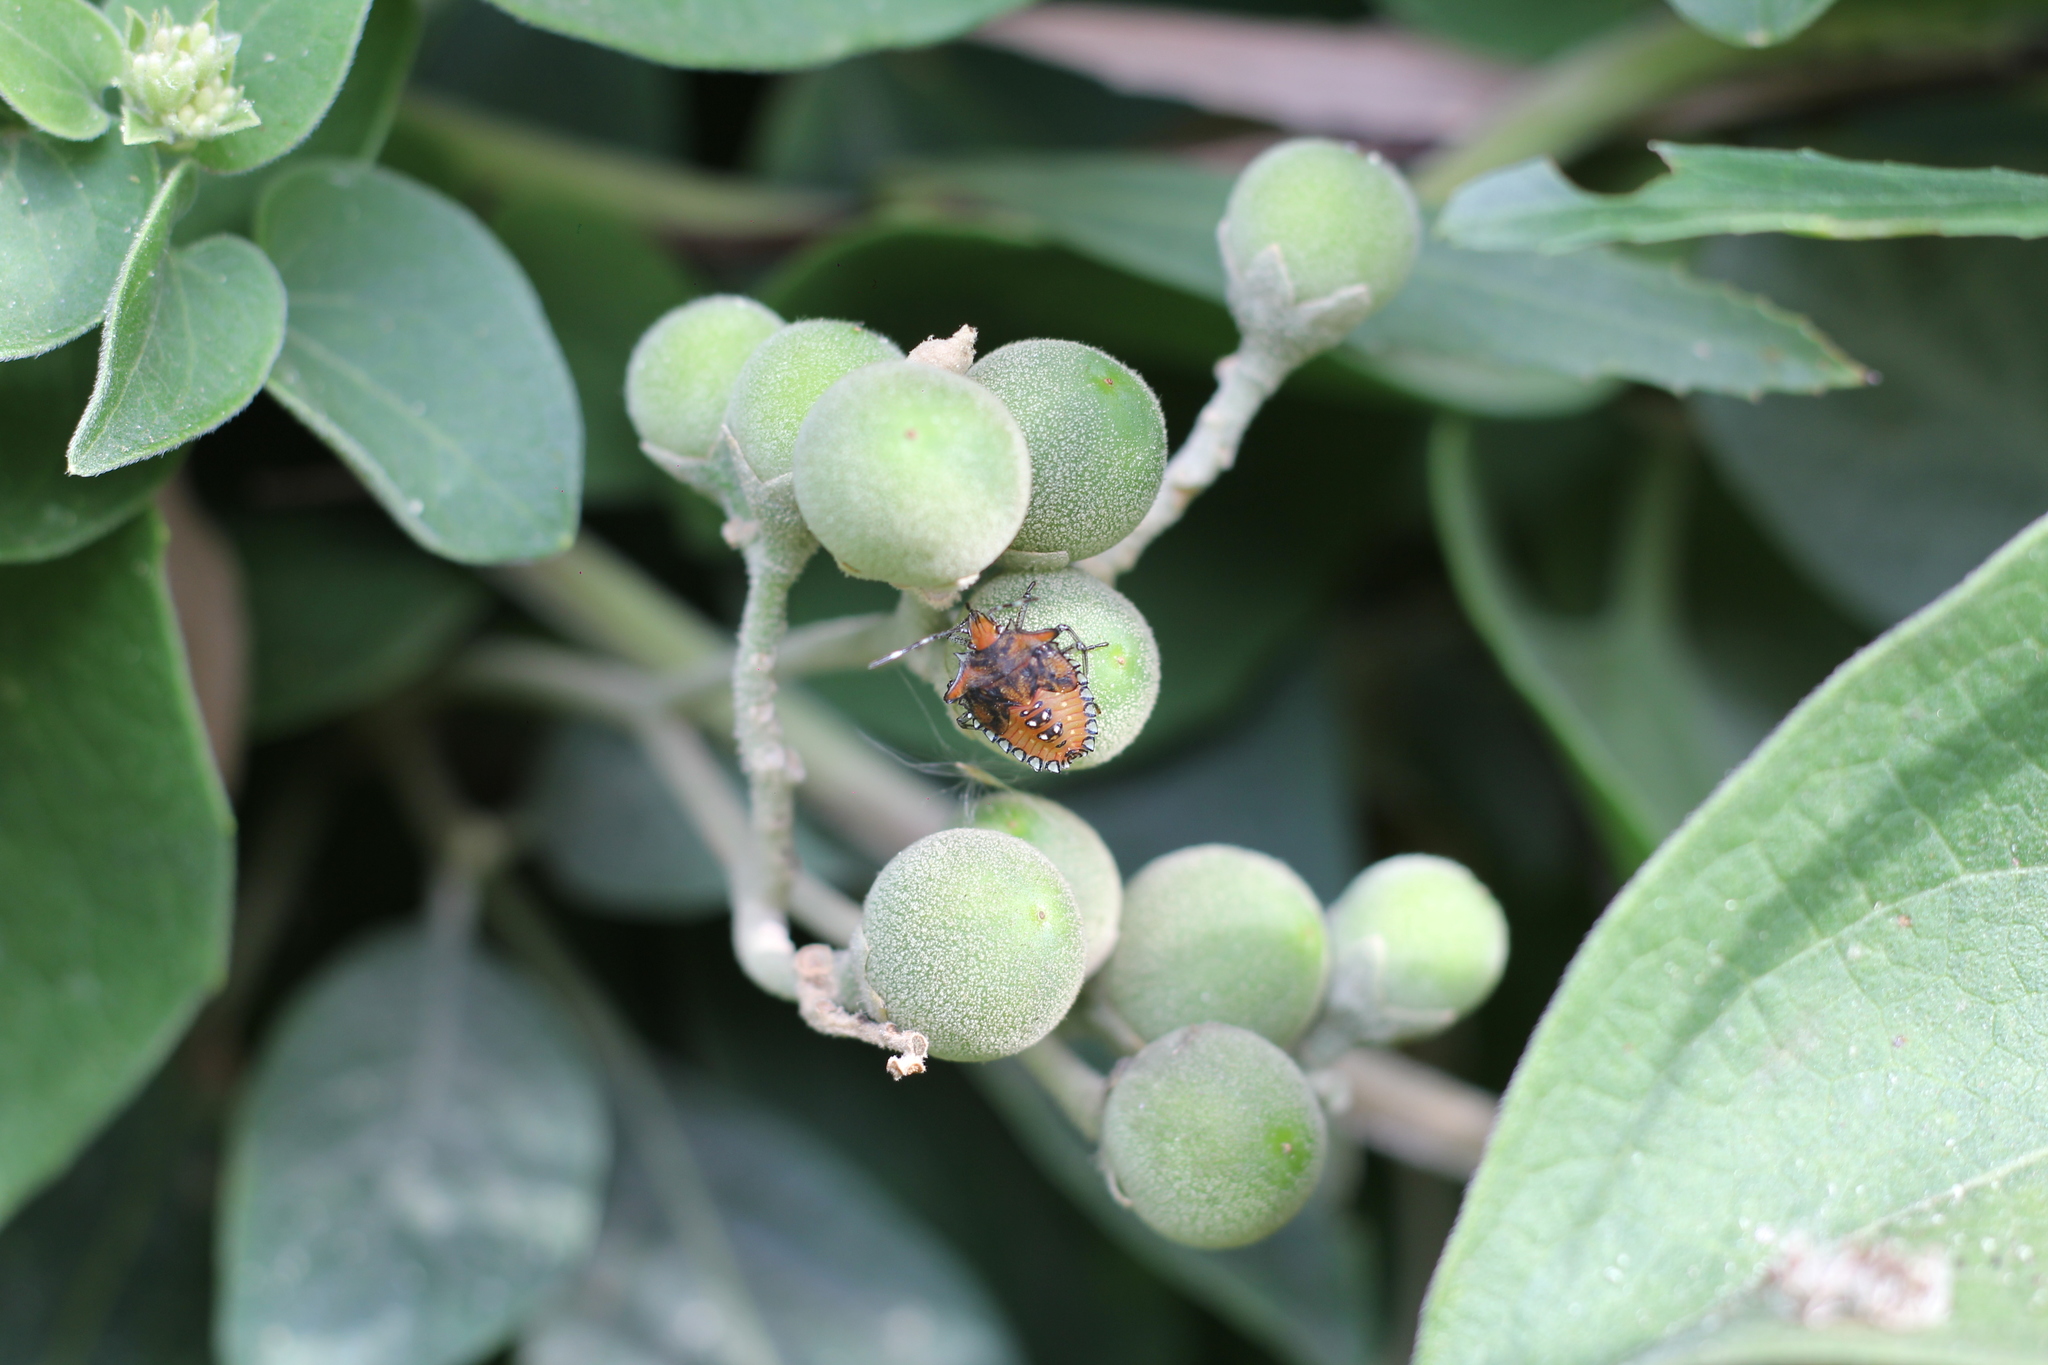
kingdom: Animalia
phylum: Arthropoda
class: Insecta
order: Hemiptera
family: Pentatomidae
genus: Arvelius
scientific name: Arvelius albopunctatus
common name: Tomato stink bug
